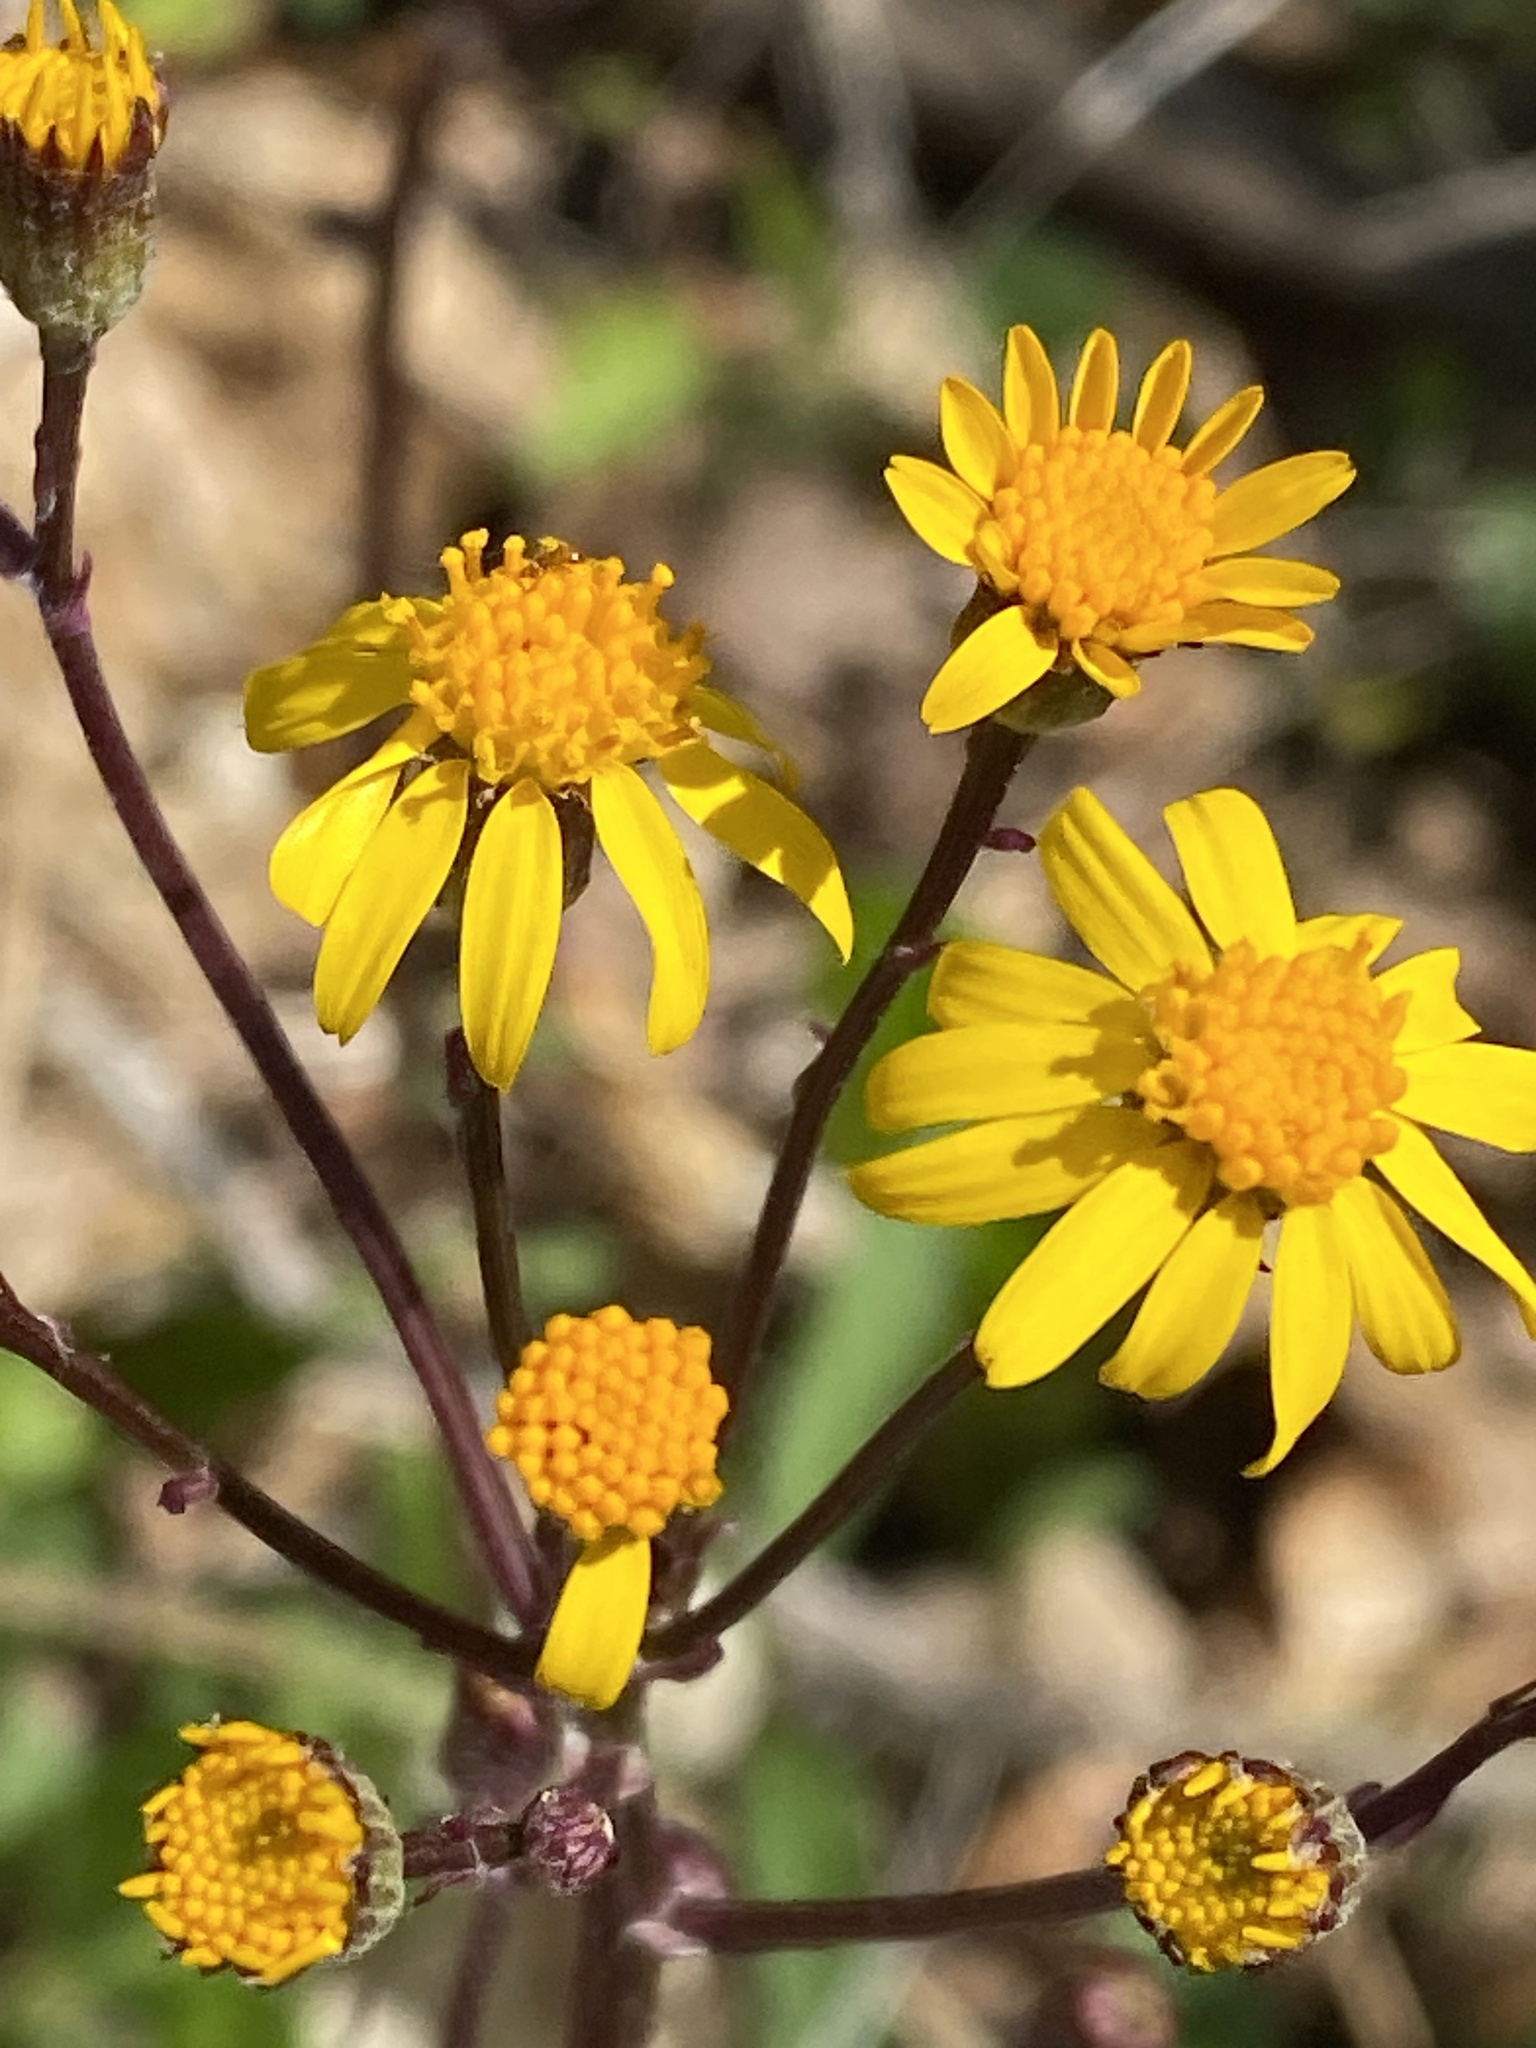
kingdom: Plantae
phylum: Tracheophyta
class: Magnoliopsida
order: Asterales
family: Asteraceae
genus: Packera
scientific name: Packera aurea
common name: Golden groundsel
